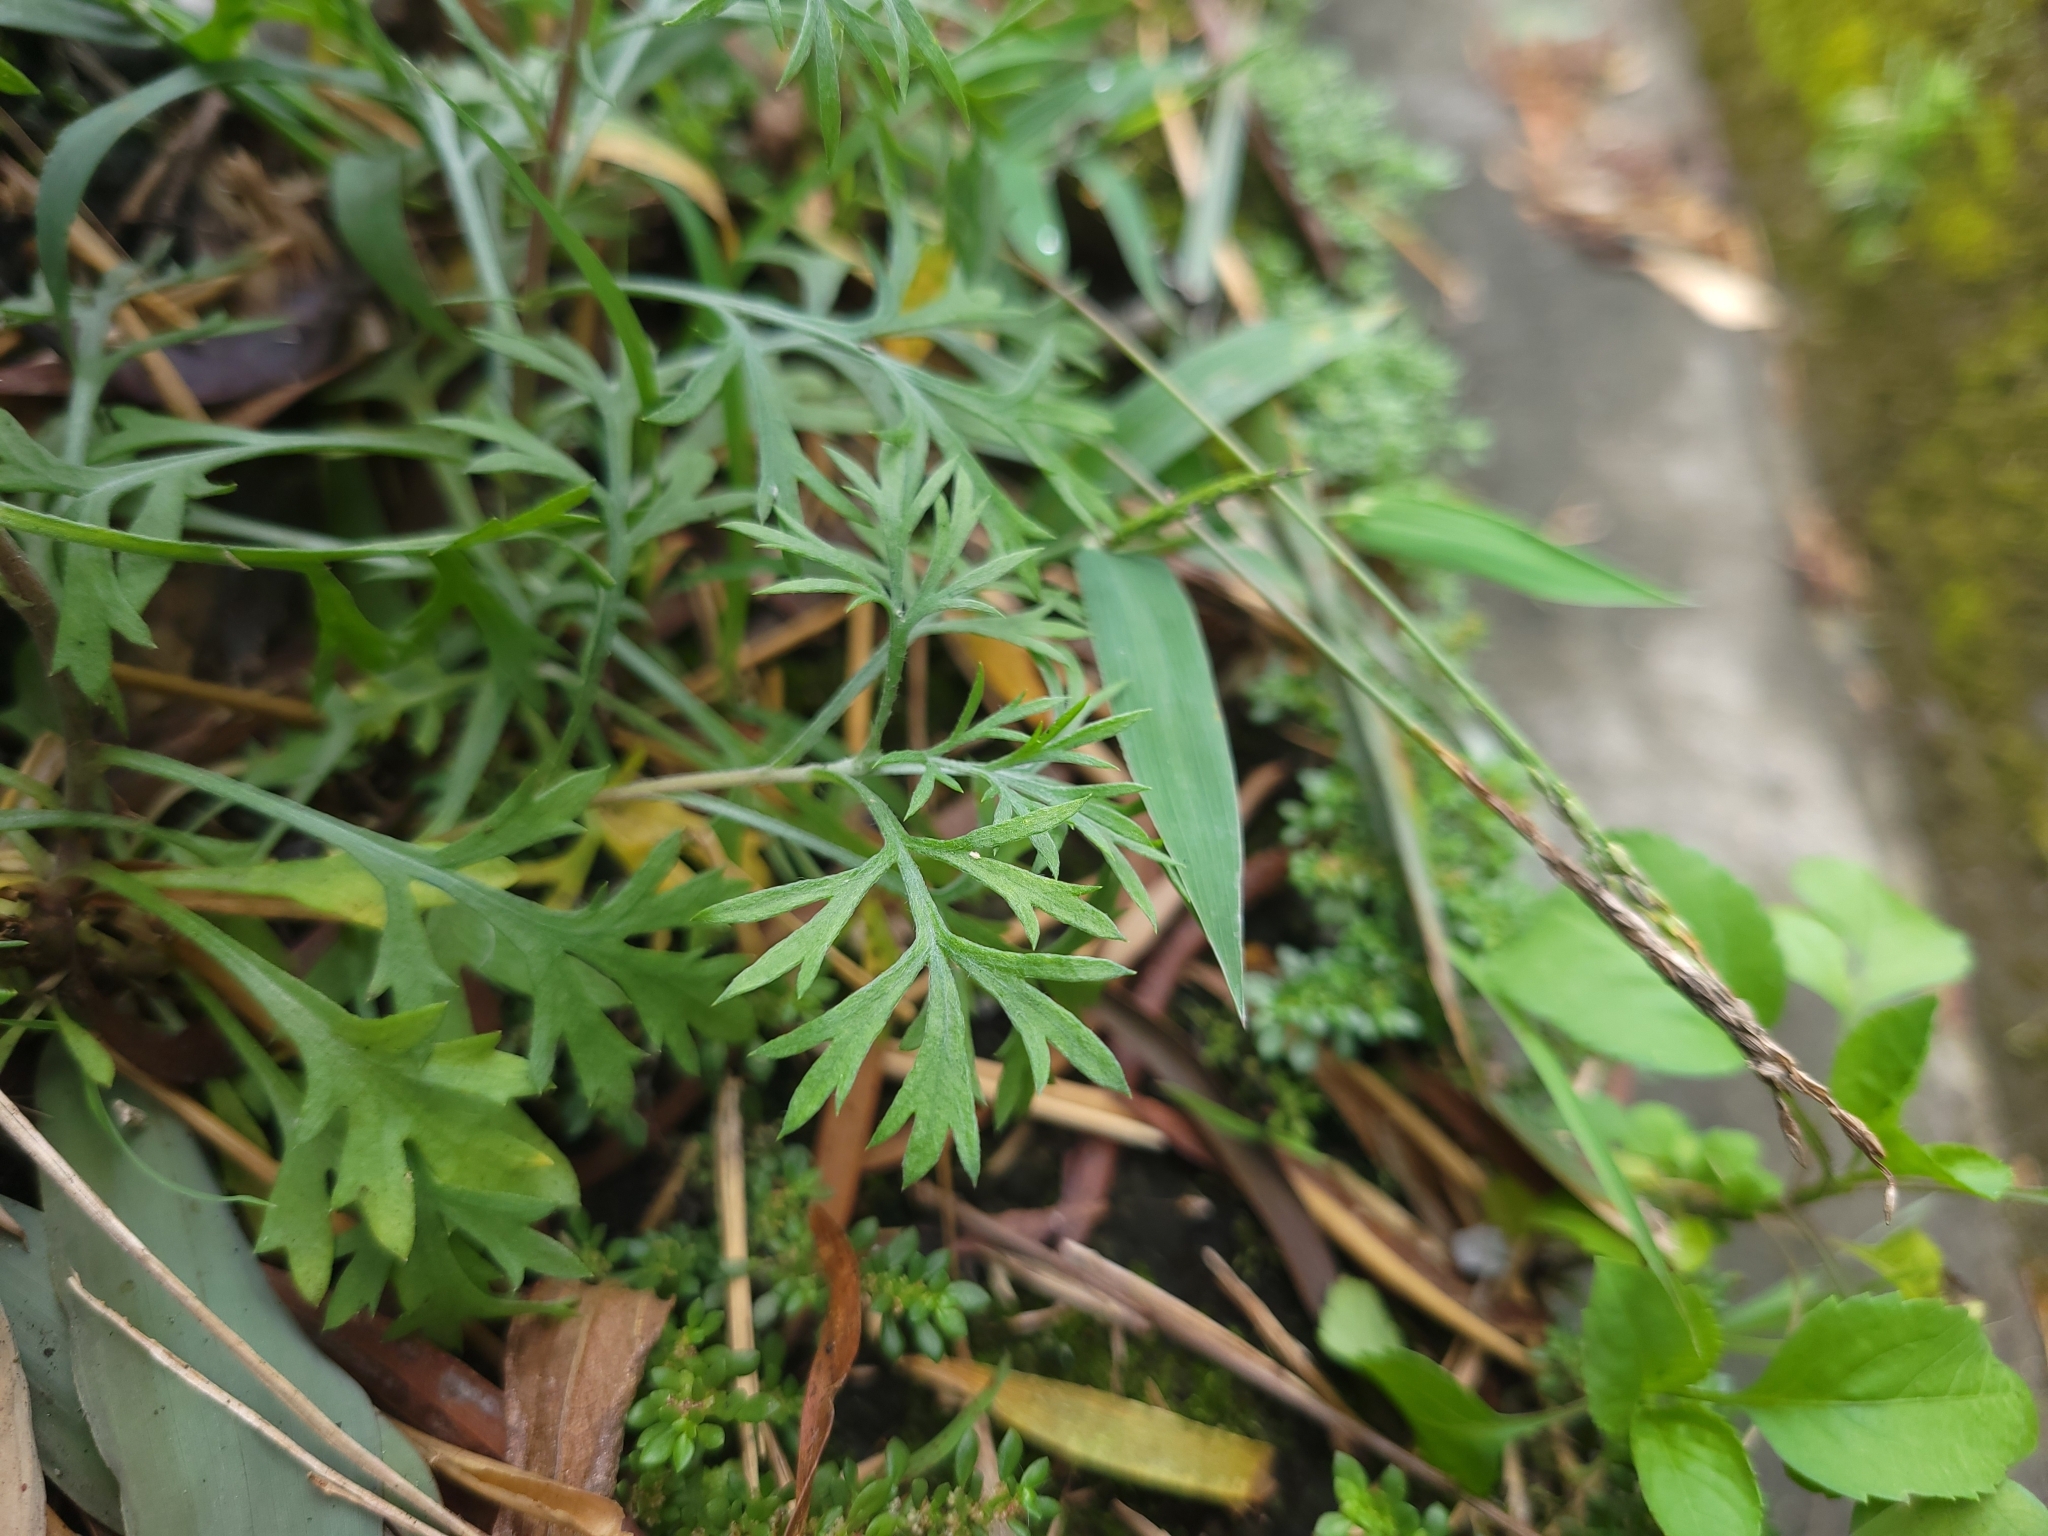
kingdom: Plantae
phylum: Tracheophyta
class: Magnoliopsida
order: Asterales
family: Asteraceae
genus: Artemisia
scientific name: Artemisia indica
